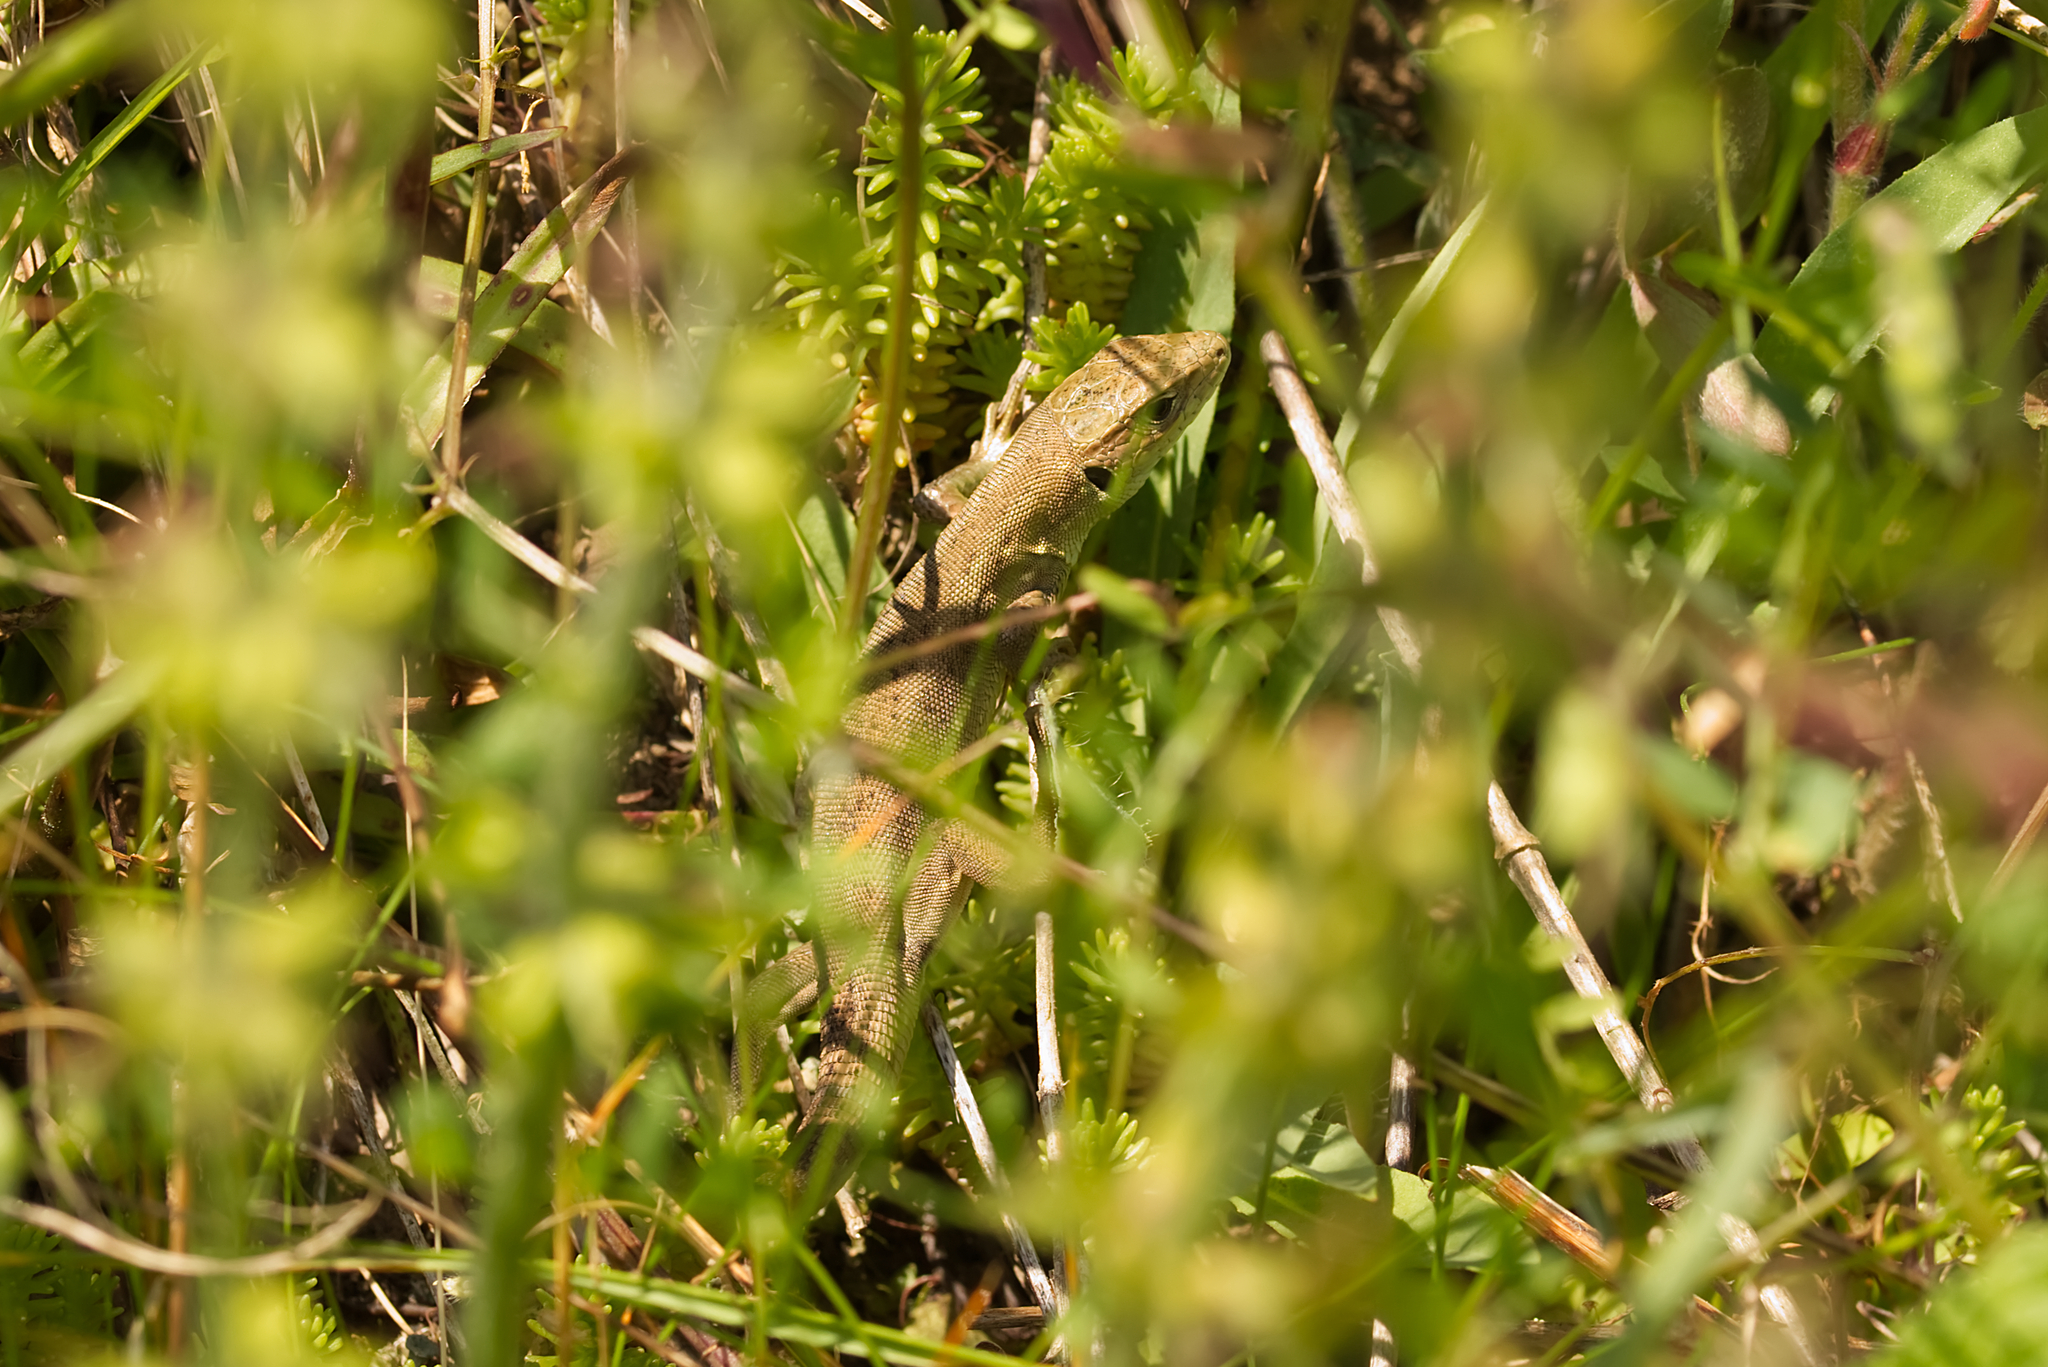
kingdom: Animalia
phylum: Chordata
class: Squamata
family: Lacertidae
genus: Lacerta
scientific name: Lacerta viridis
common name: European green lizard
